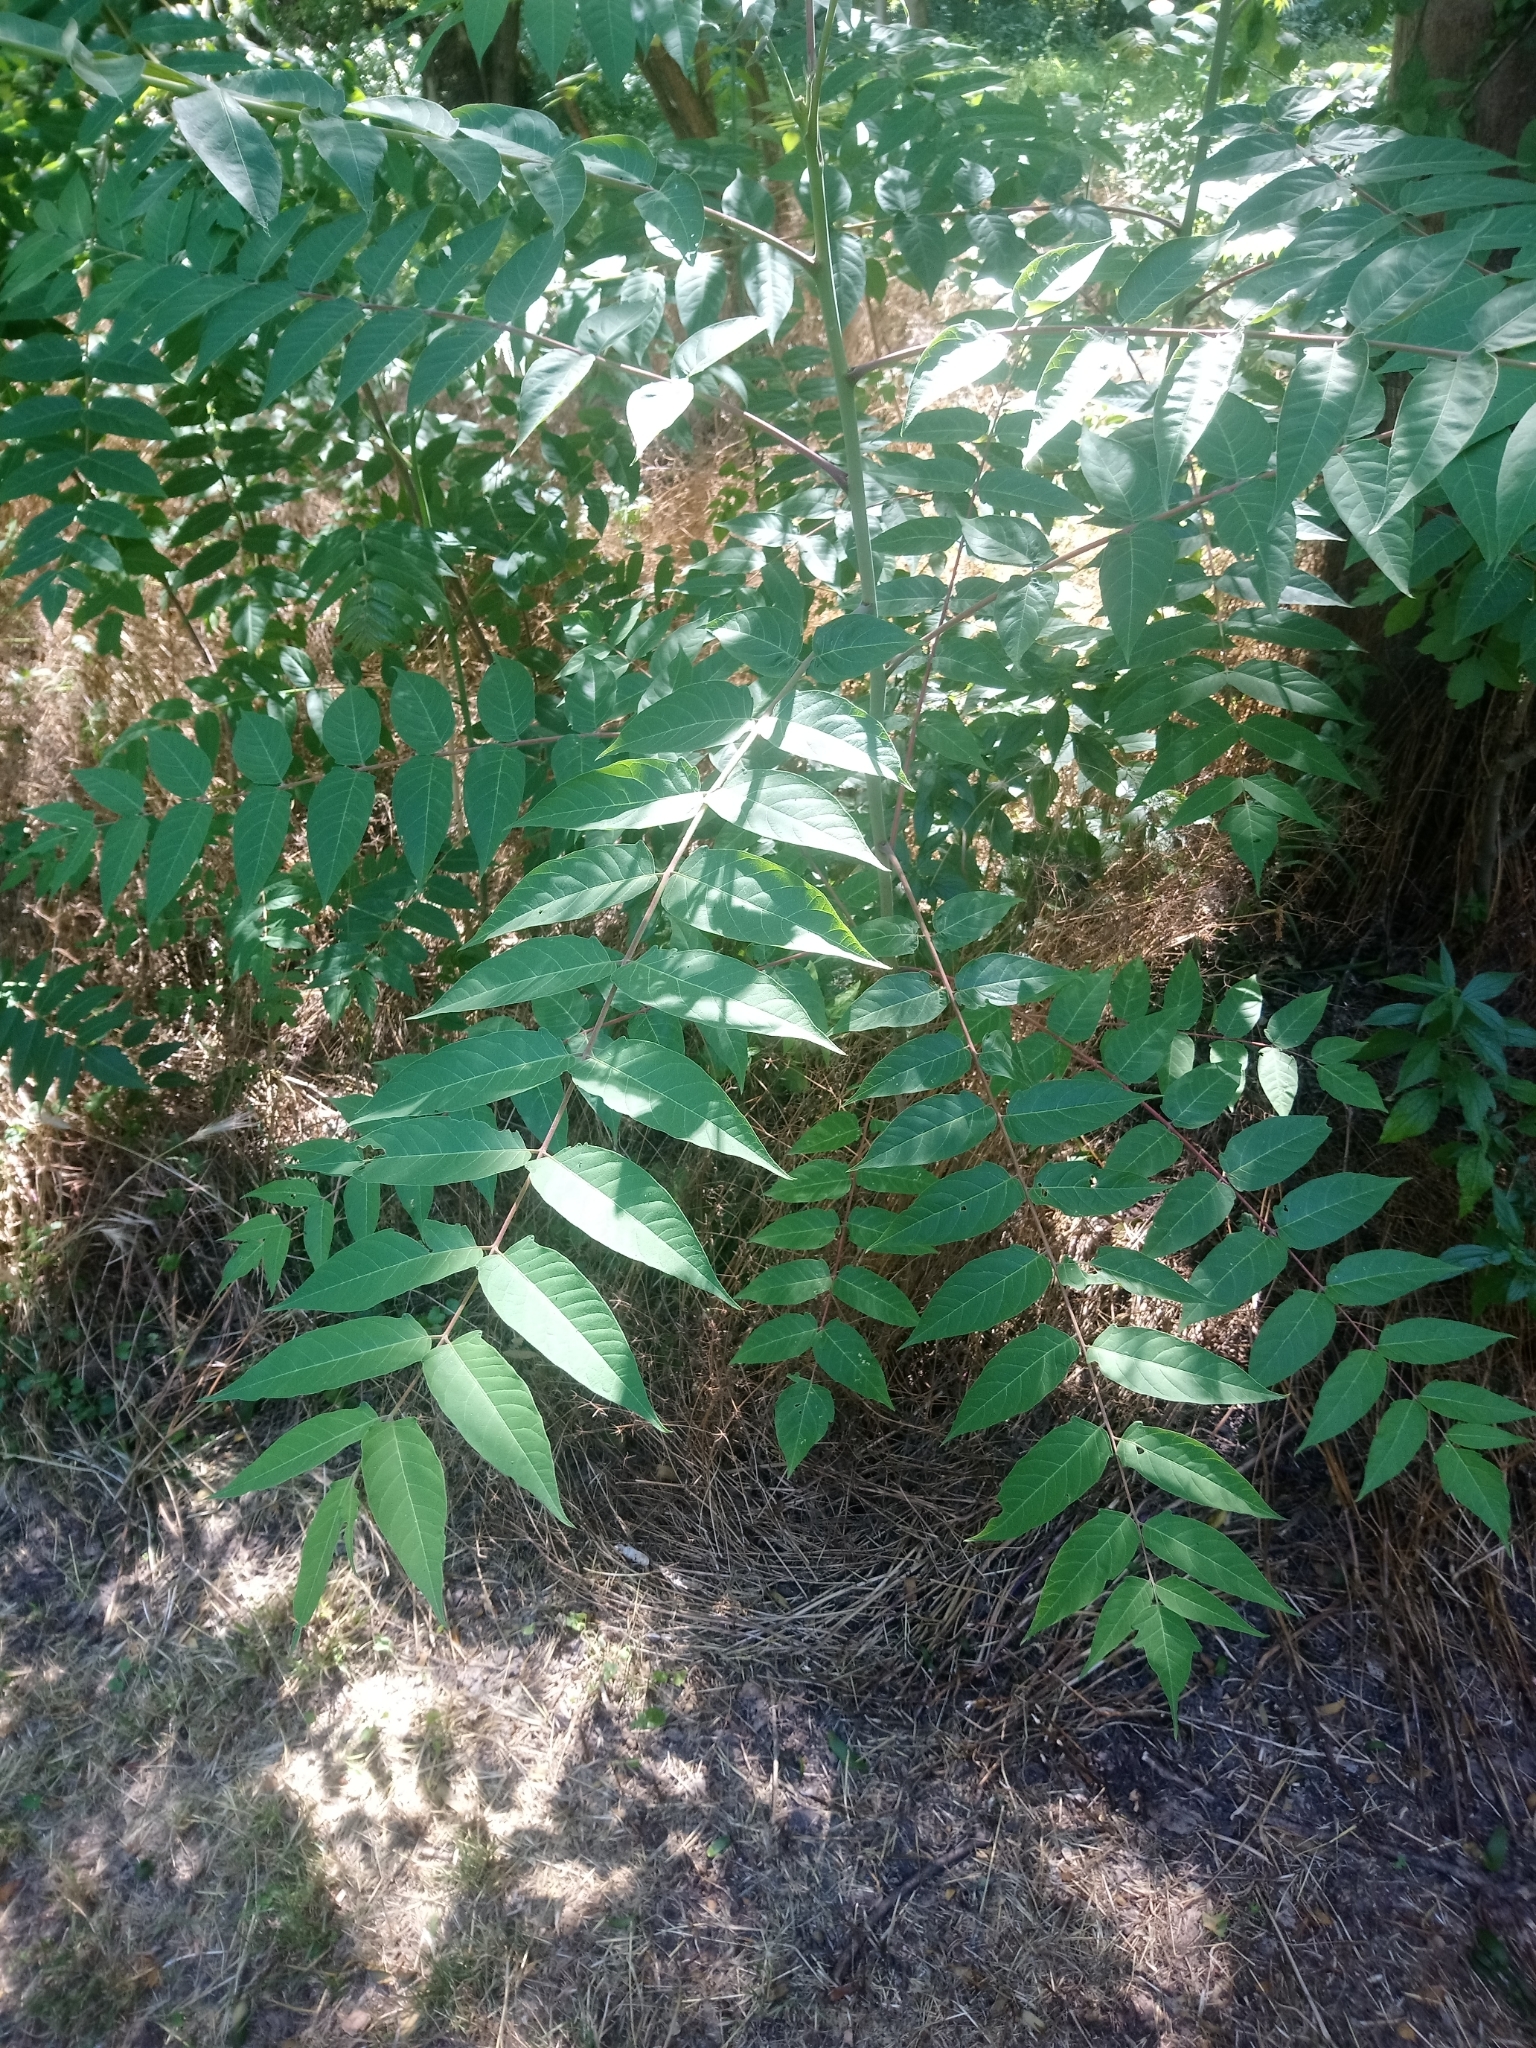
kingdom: Plantae
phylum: Tracheophyta
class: Magnoliopsida
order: Sapindales
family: Simaroubaceae
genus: Ailanthus
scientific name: Ailanthus altissima
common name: Tree-of-heaven
